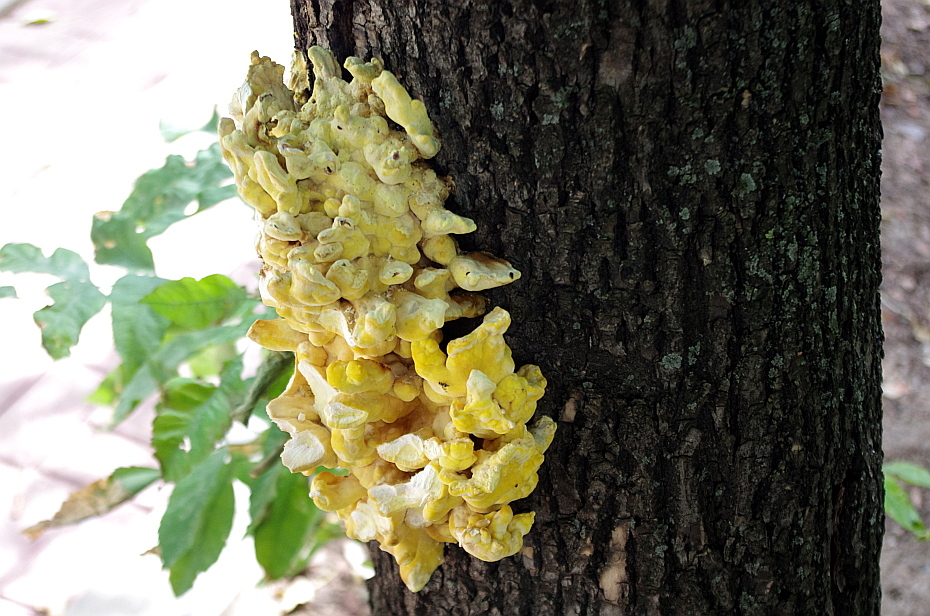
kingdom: Fungi
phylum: Basidiomycota
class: Agaricomycetes
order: Polyporales
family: Laetiporaceae
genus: Laetiporus
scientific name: Laetiporus sulphureus
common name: Chicken of the woods
